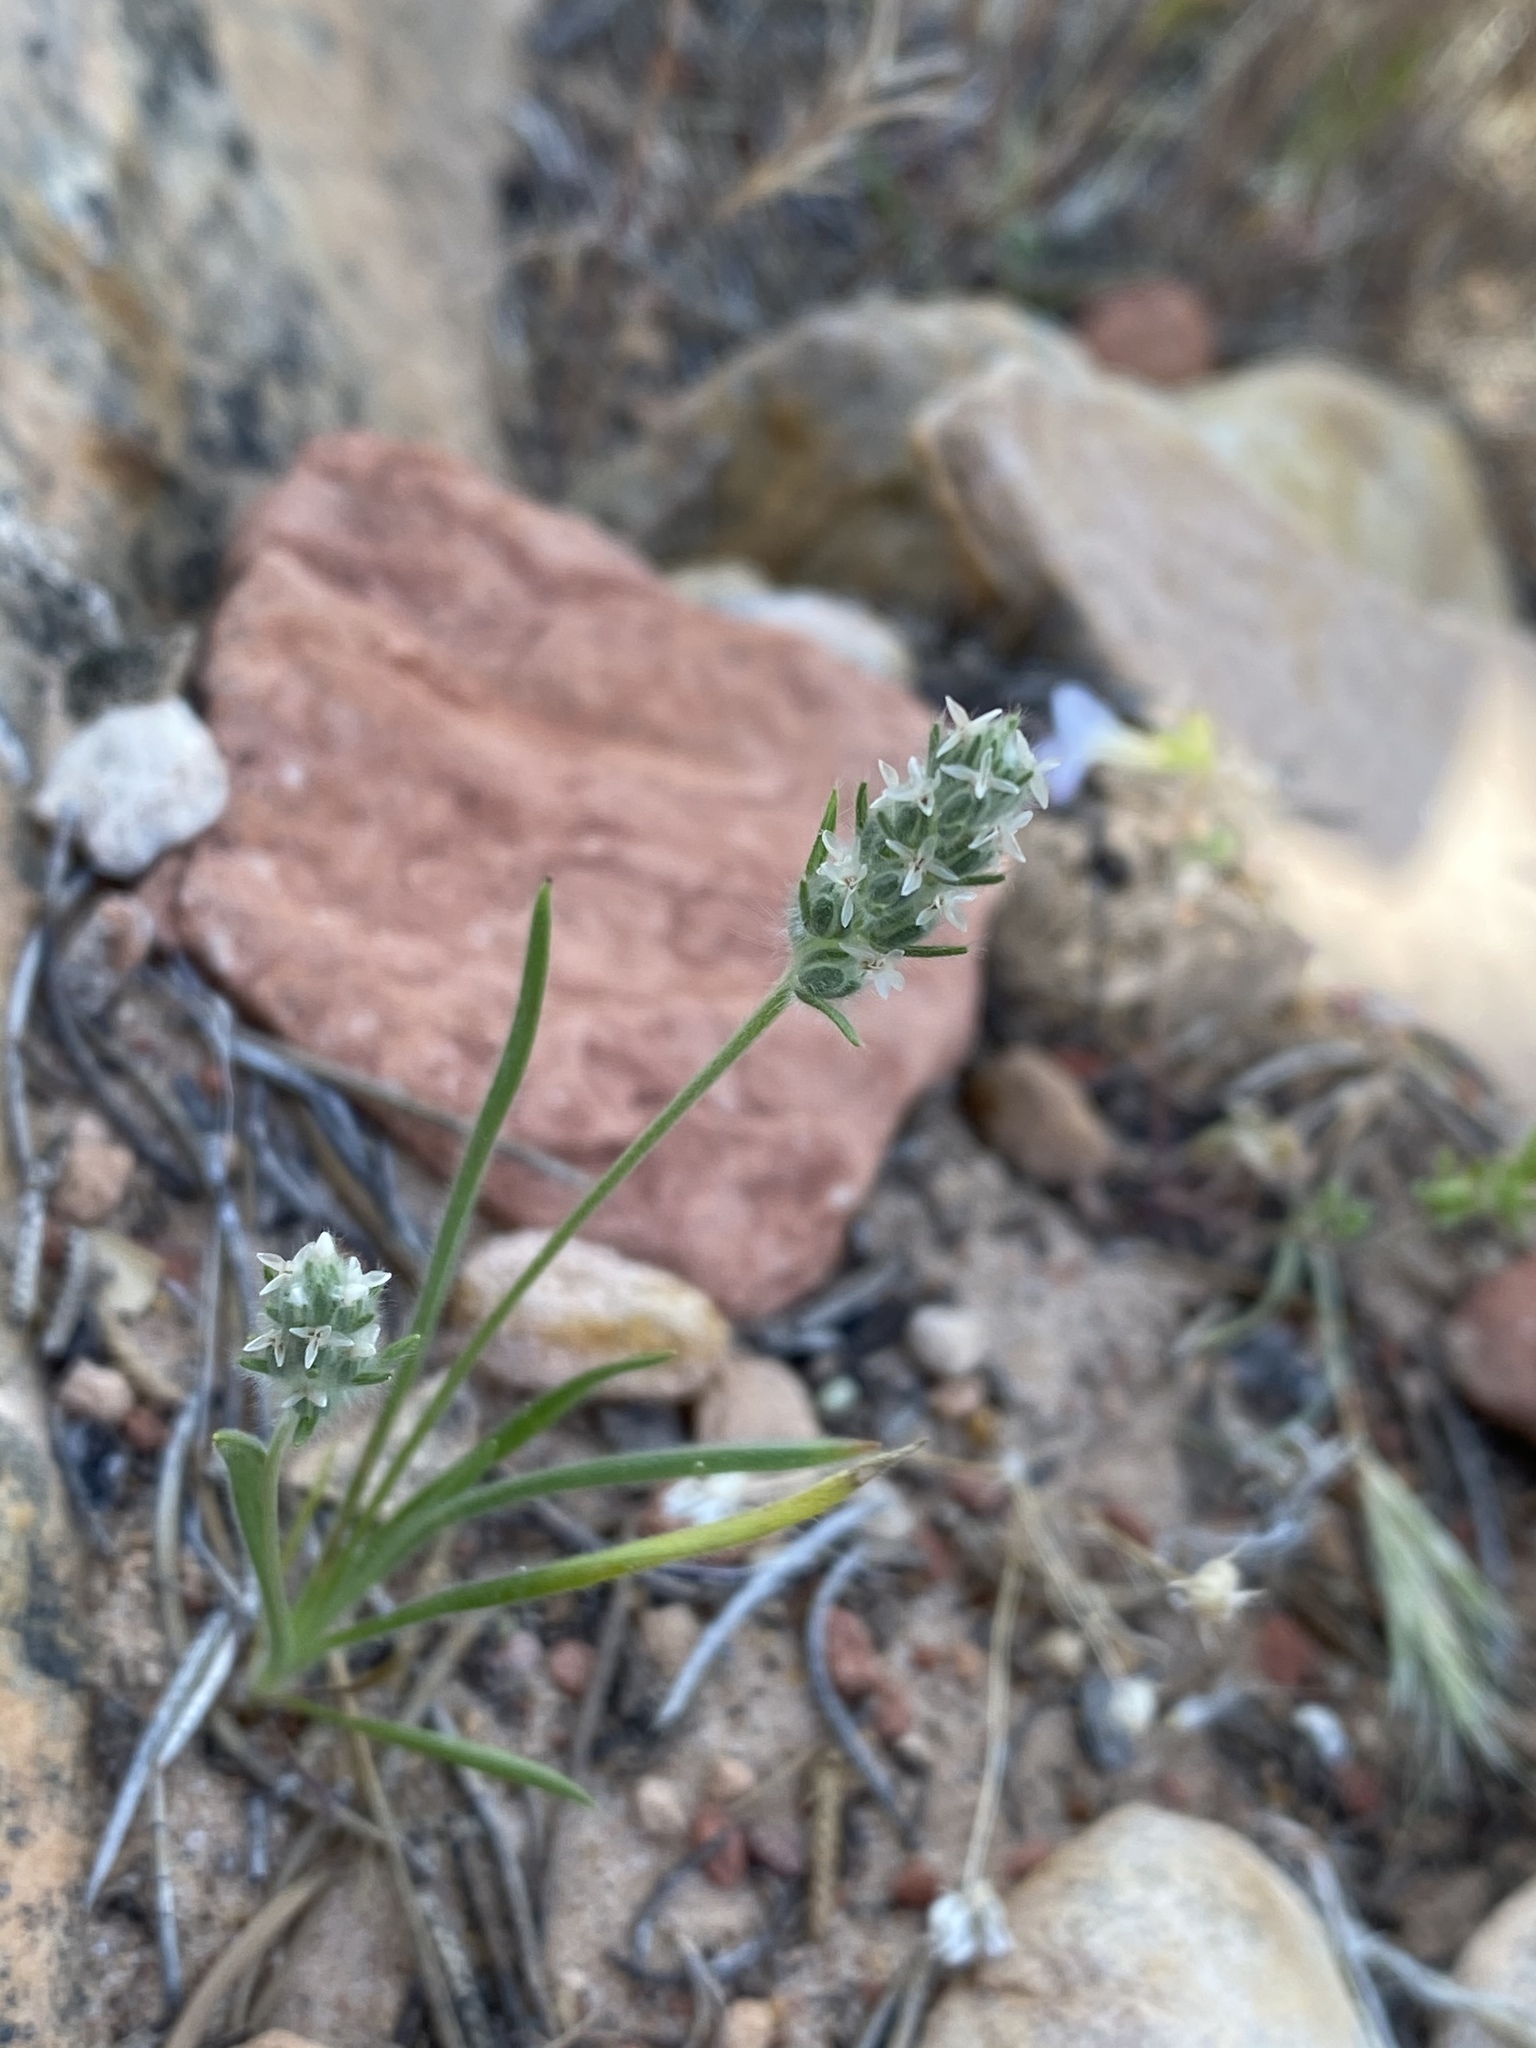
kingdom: Plantae
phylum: Tracheophyta
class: Magnoliopsida
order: Lamiales
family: Plantaginaceae
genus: Plantago
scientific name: Plantago patagonica
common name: Patagonia indian-wheat
